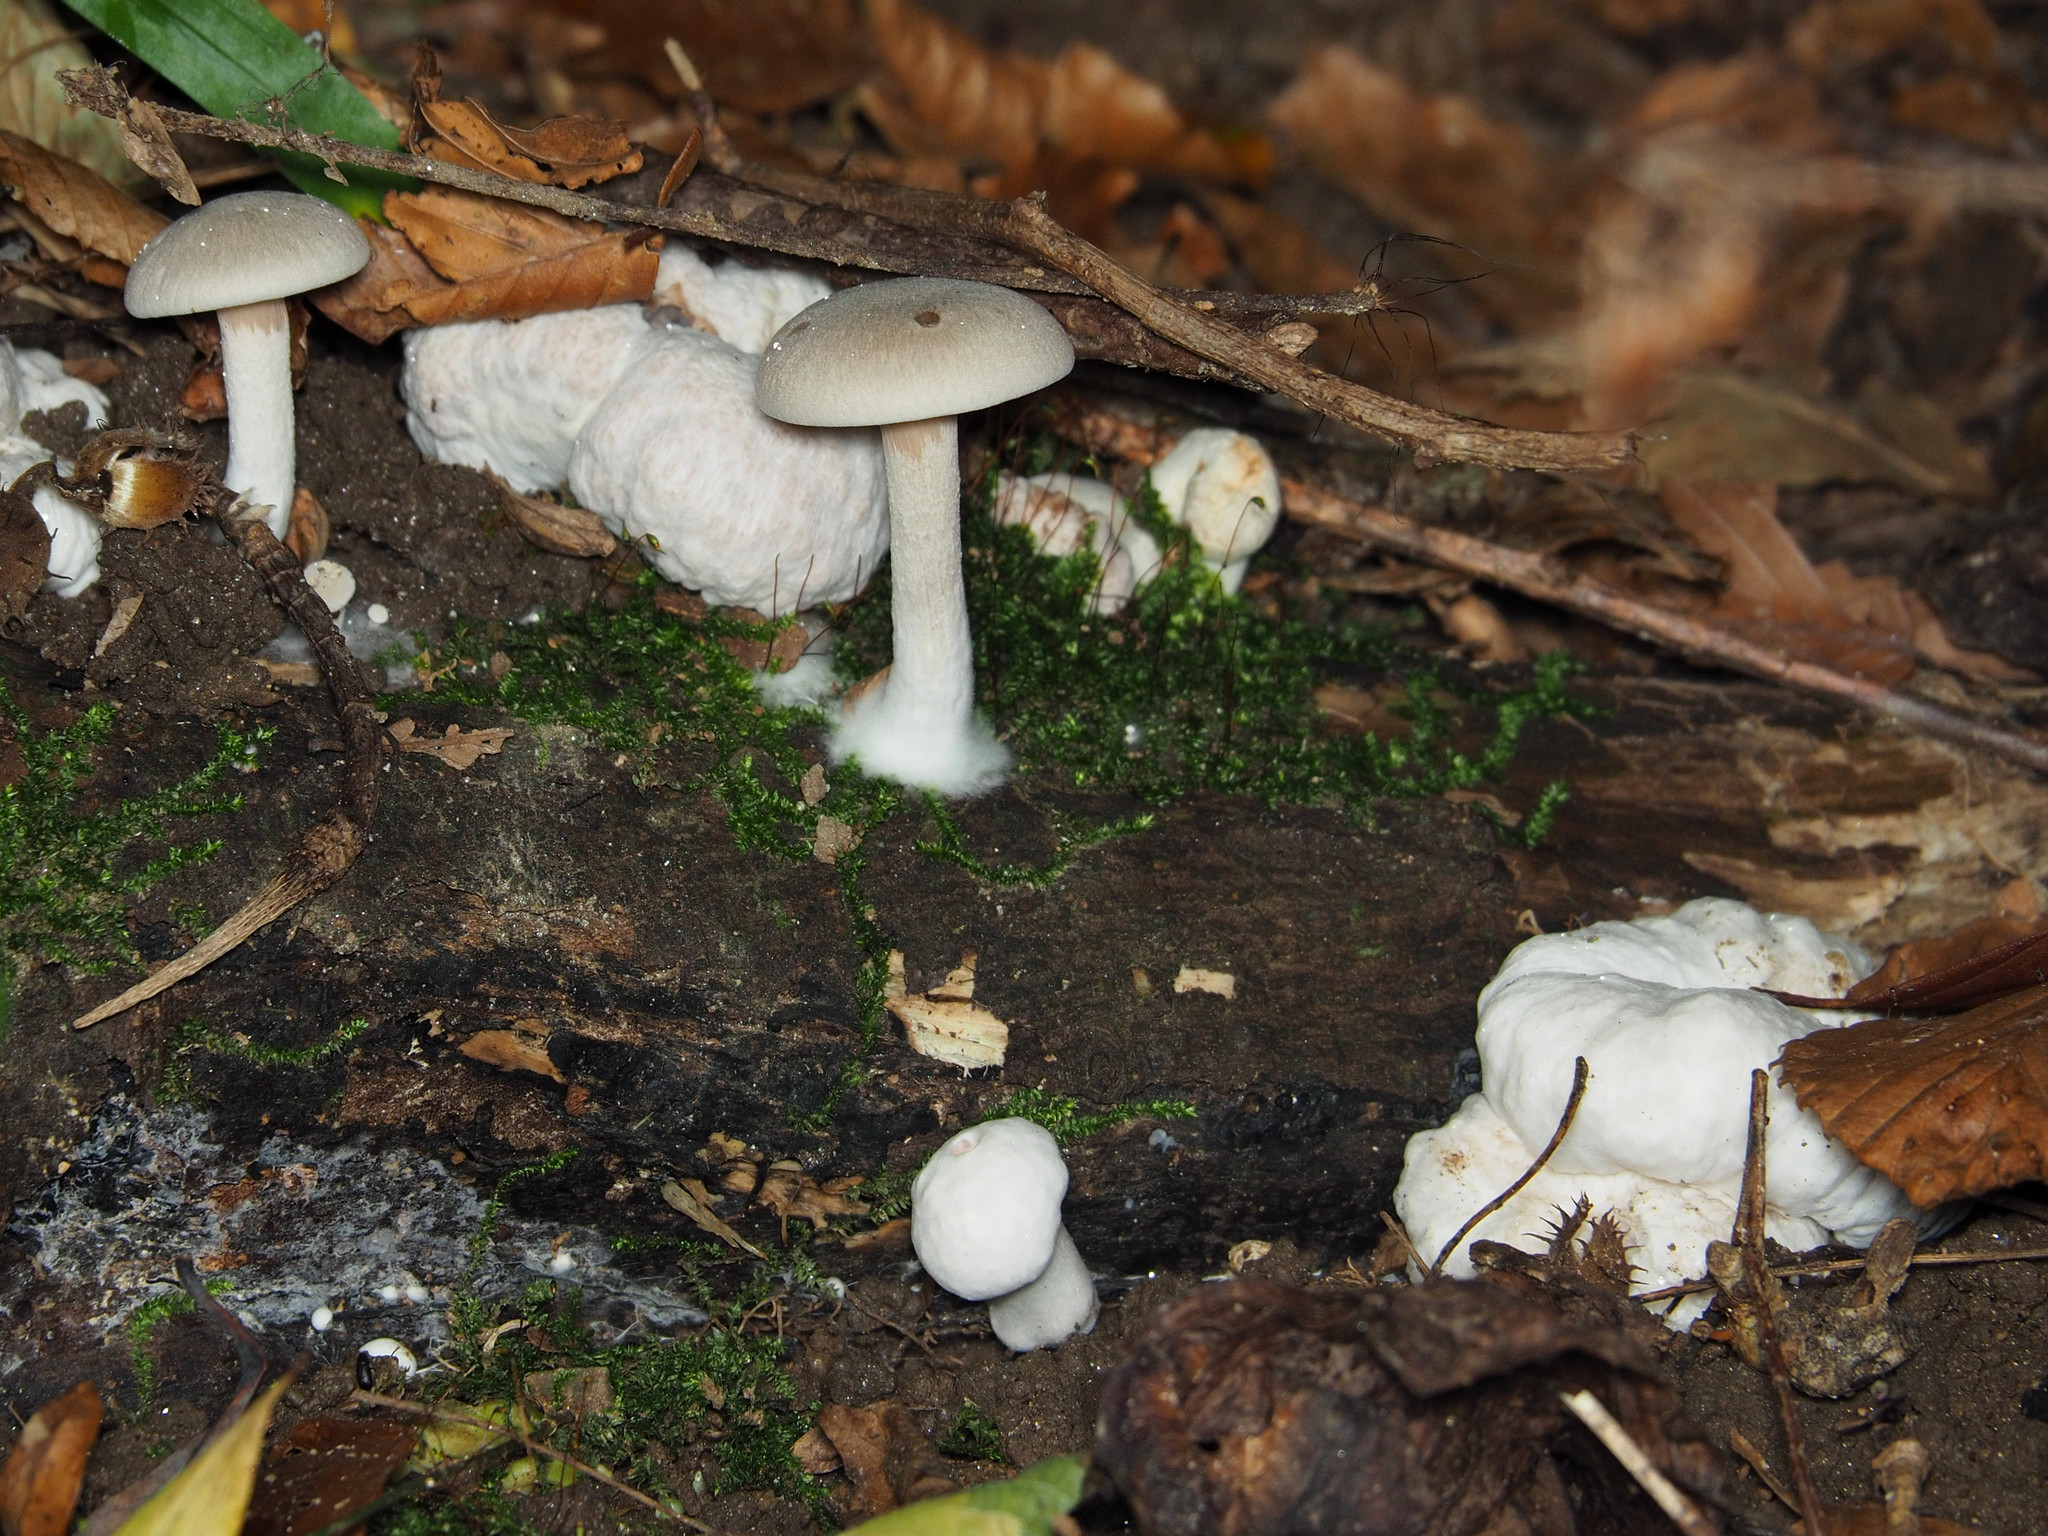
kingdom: Fungi
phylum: Basidiomycota
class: Agaricomycetes
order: Agaricales
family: Entolomataceae
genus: Entoloma
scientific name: Entoloma abortivum
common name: Aborted entoloma
